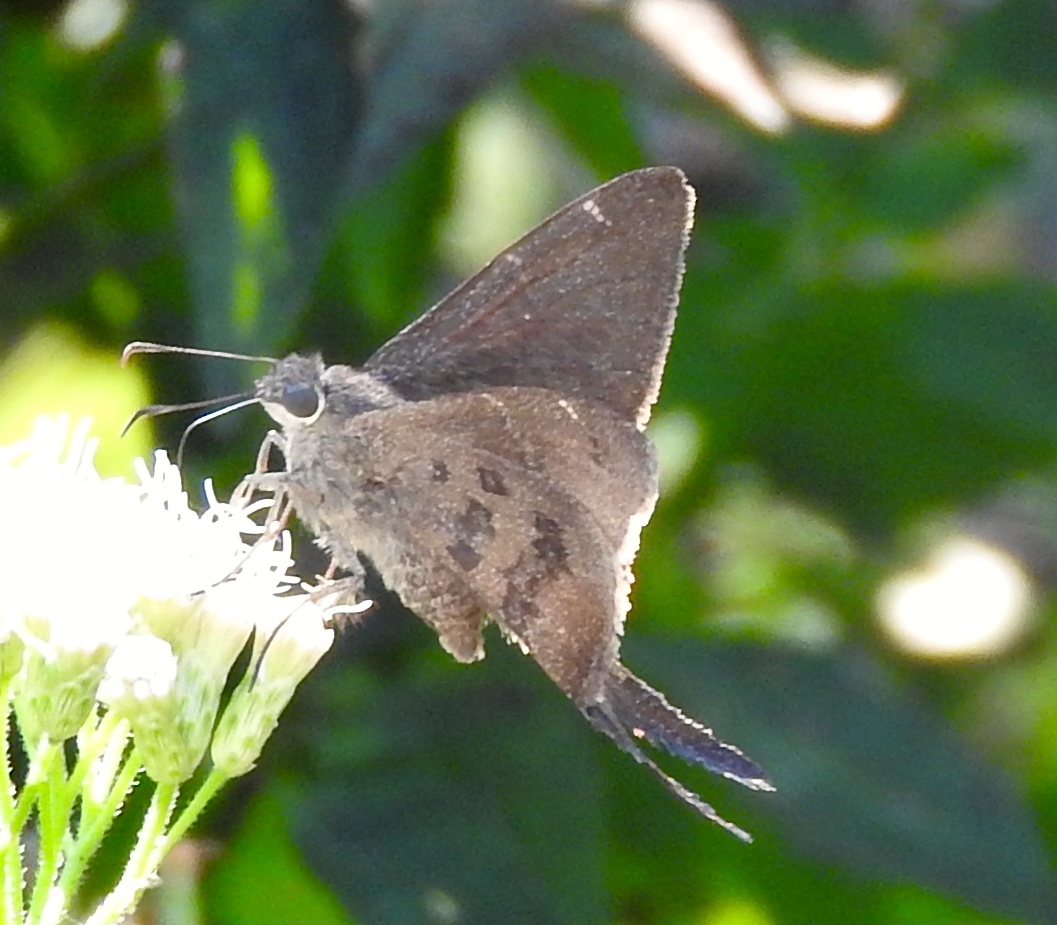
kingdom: Animalia
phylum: Arthropoda
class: Insecta
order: Lepidoptera
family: Hesperiidae
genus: Urbanus
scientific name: Urbanus procne
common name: Brown longtail
